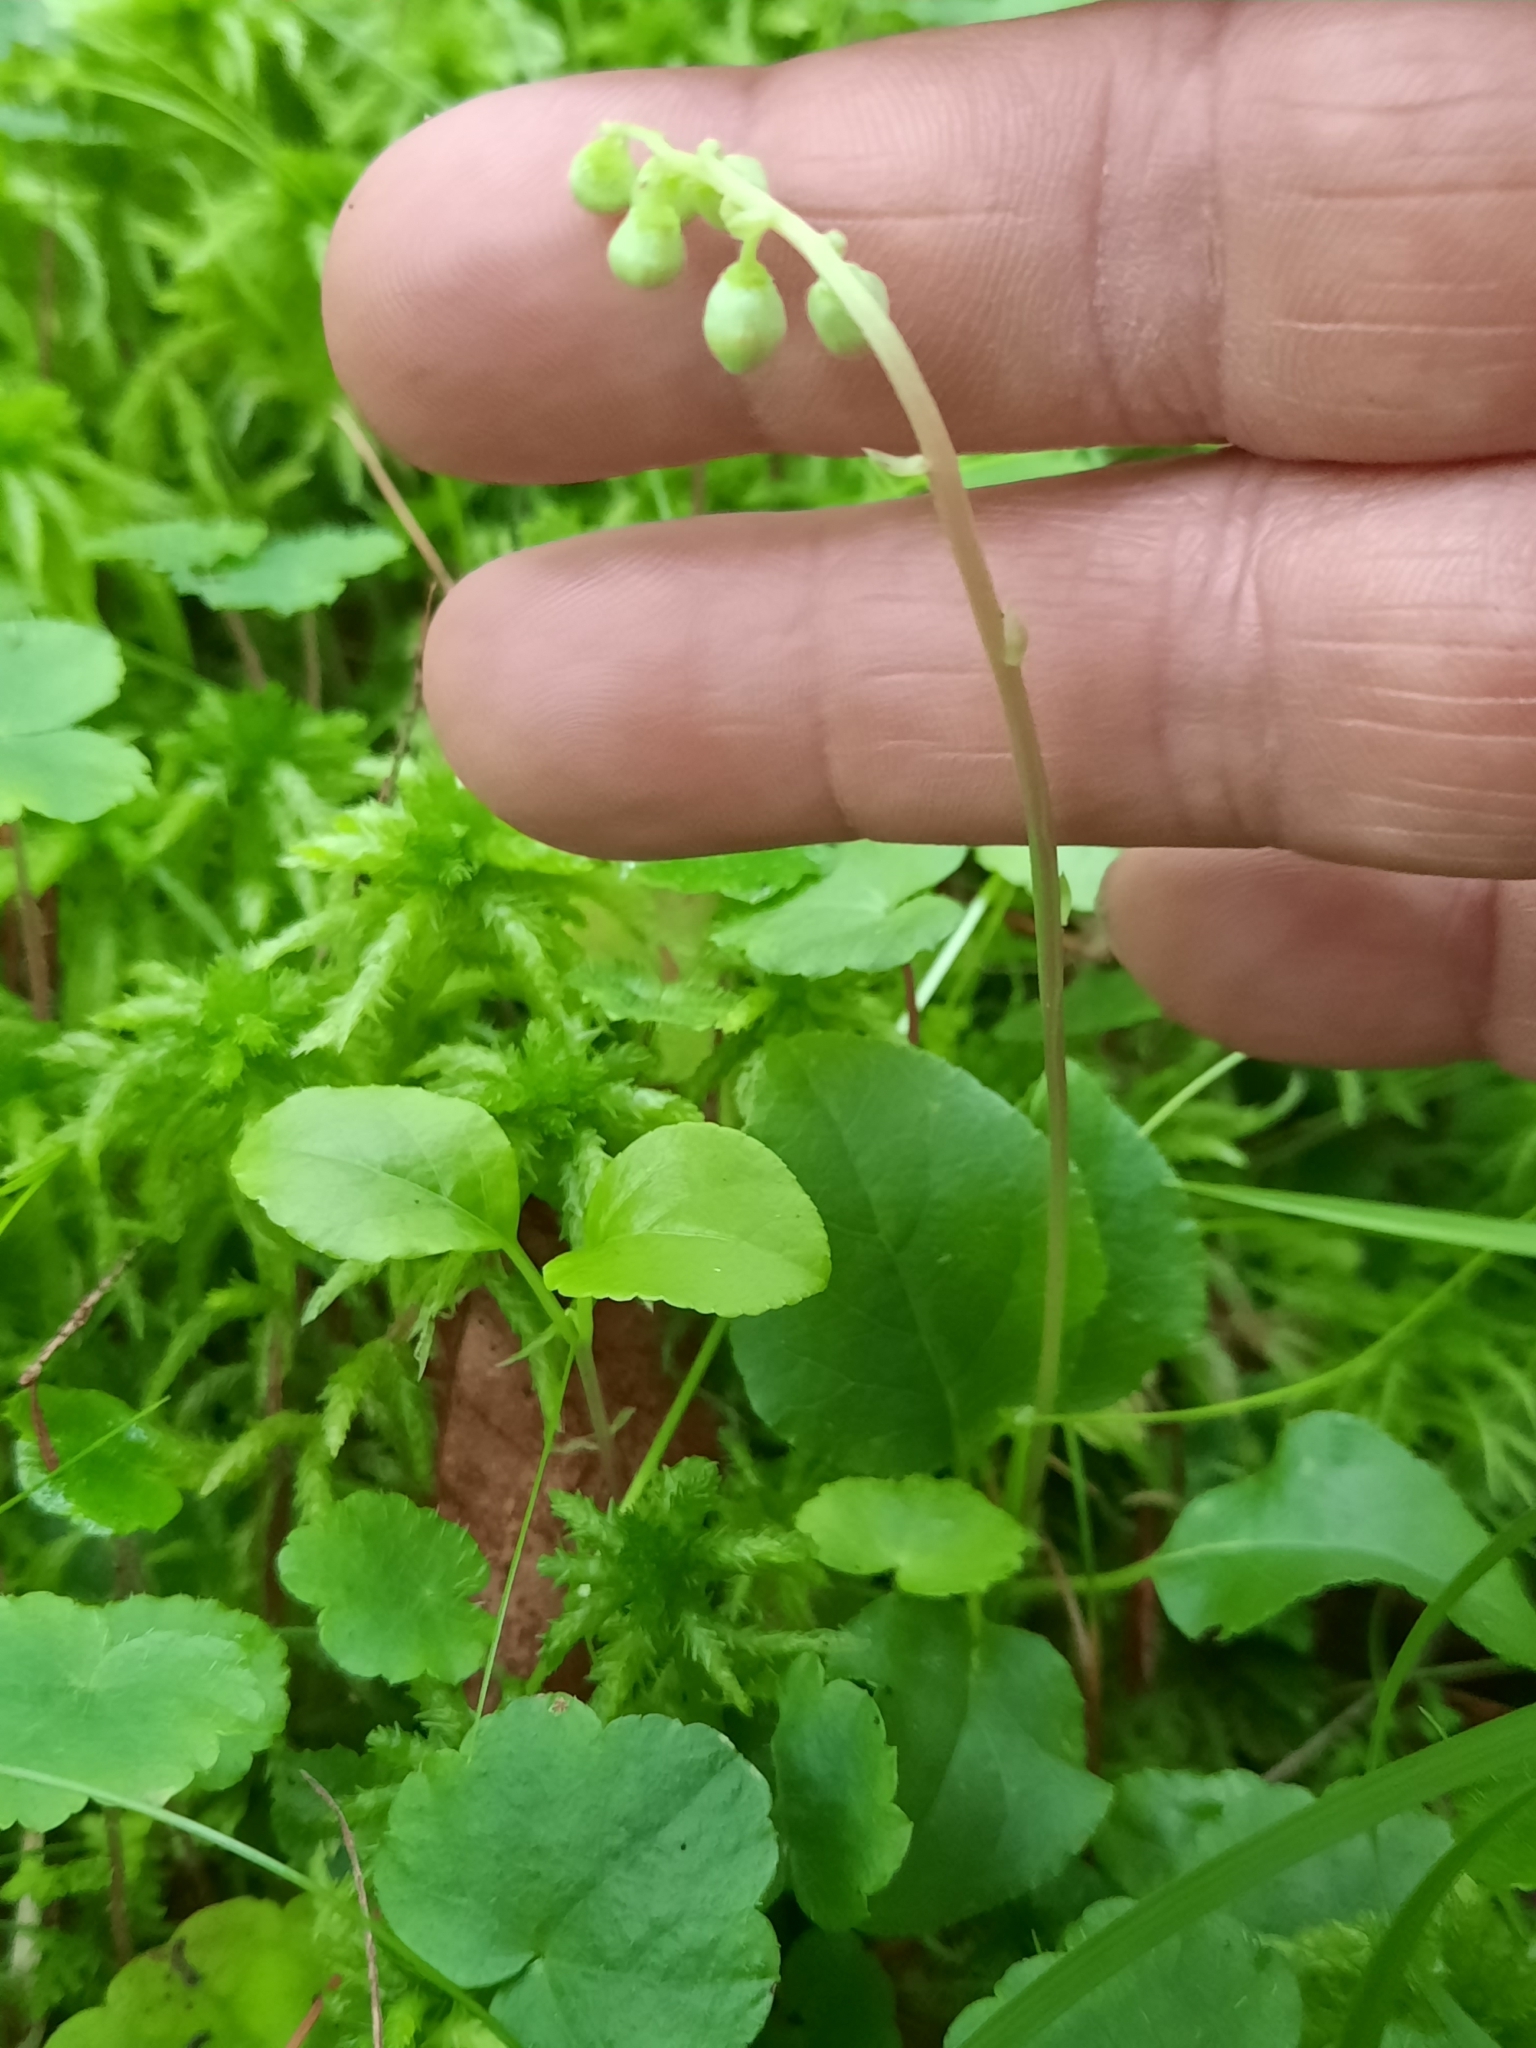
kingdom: Plantae
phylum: Tracheophyta
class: Magnoliopsida
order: Ericales
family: Ericaceae
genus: Orthilia
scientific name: Orthilia secunda
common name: One-sided orthilia
